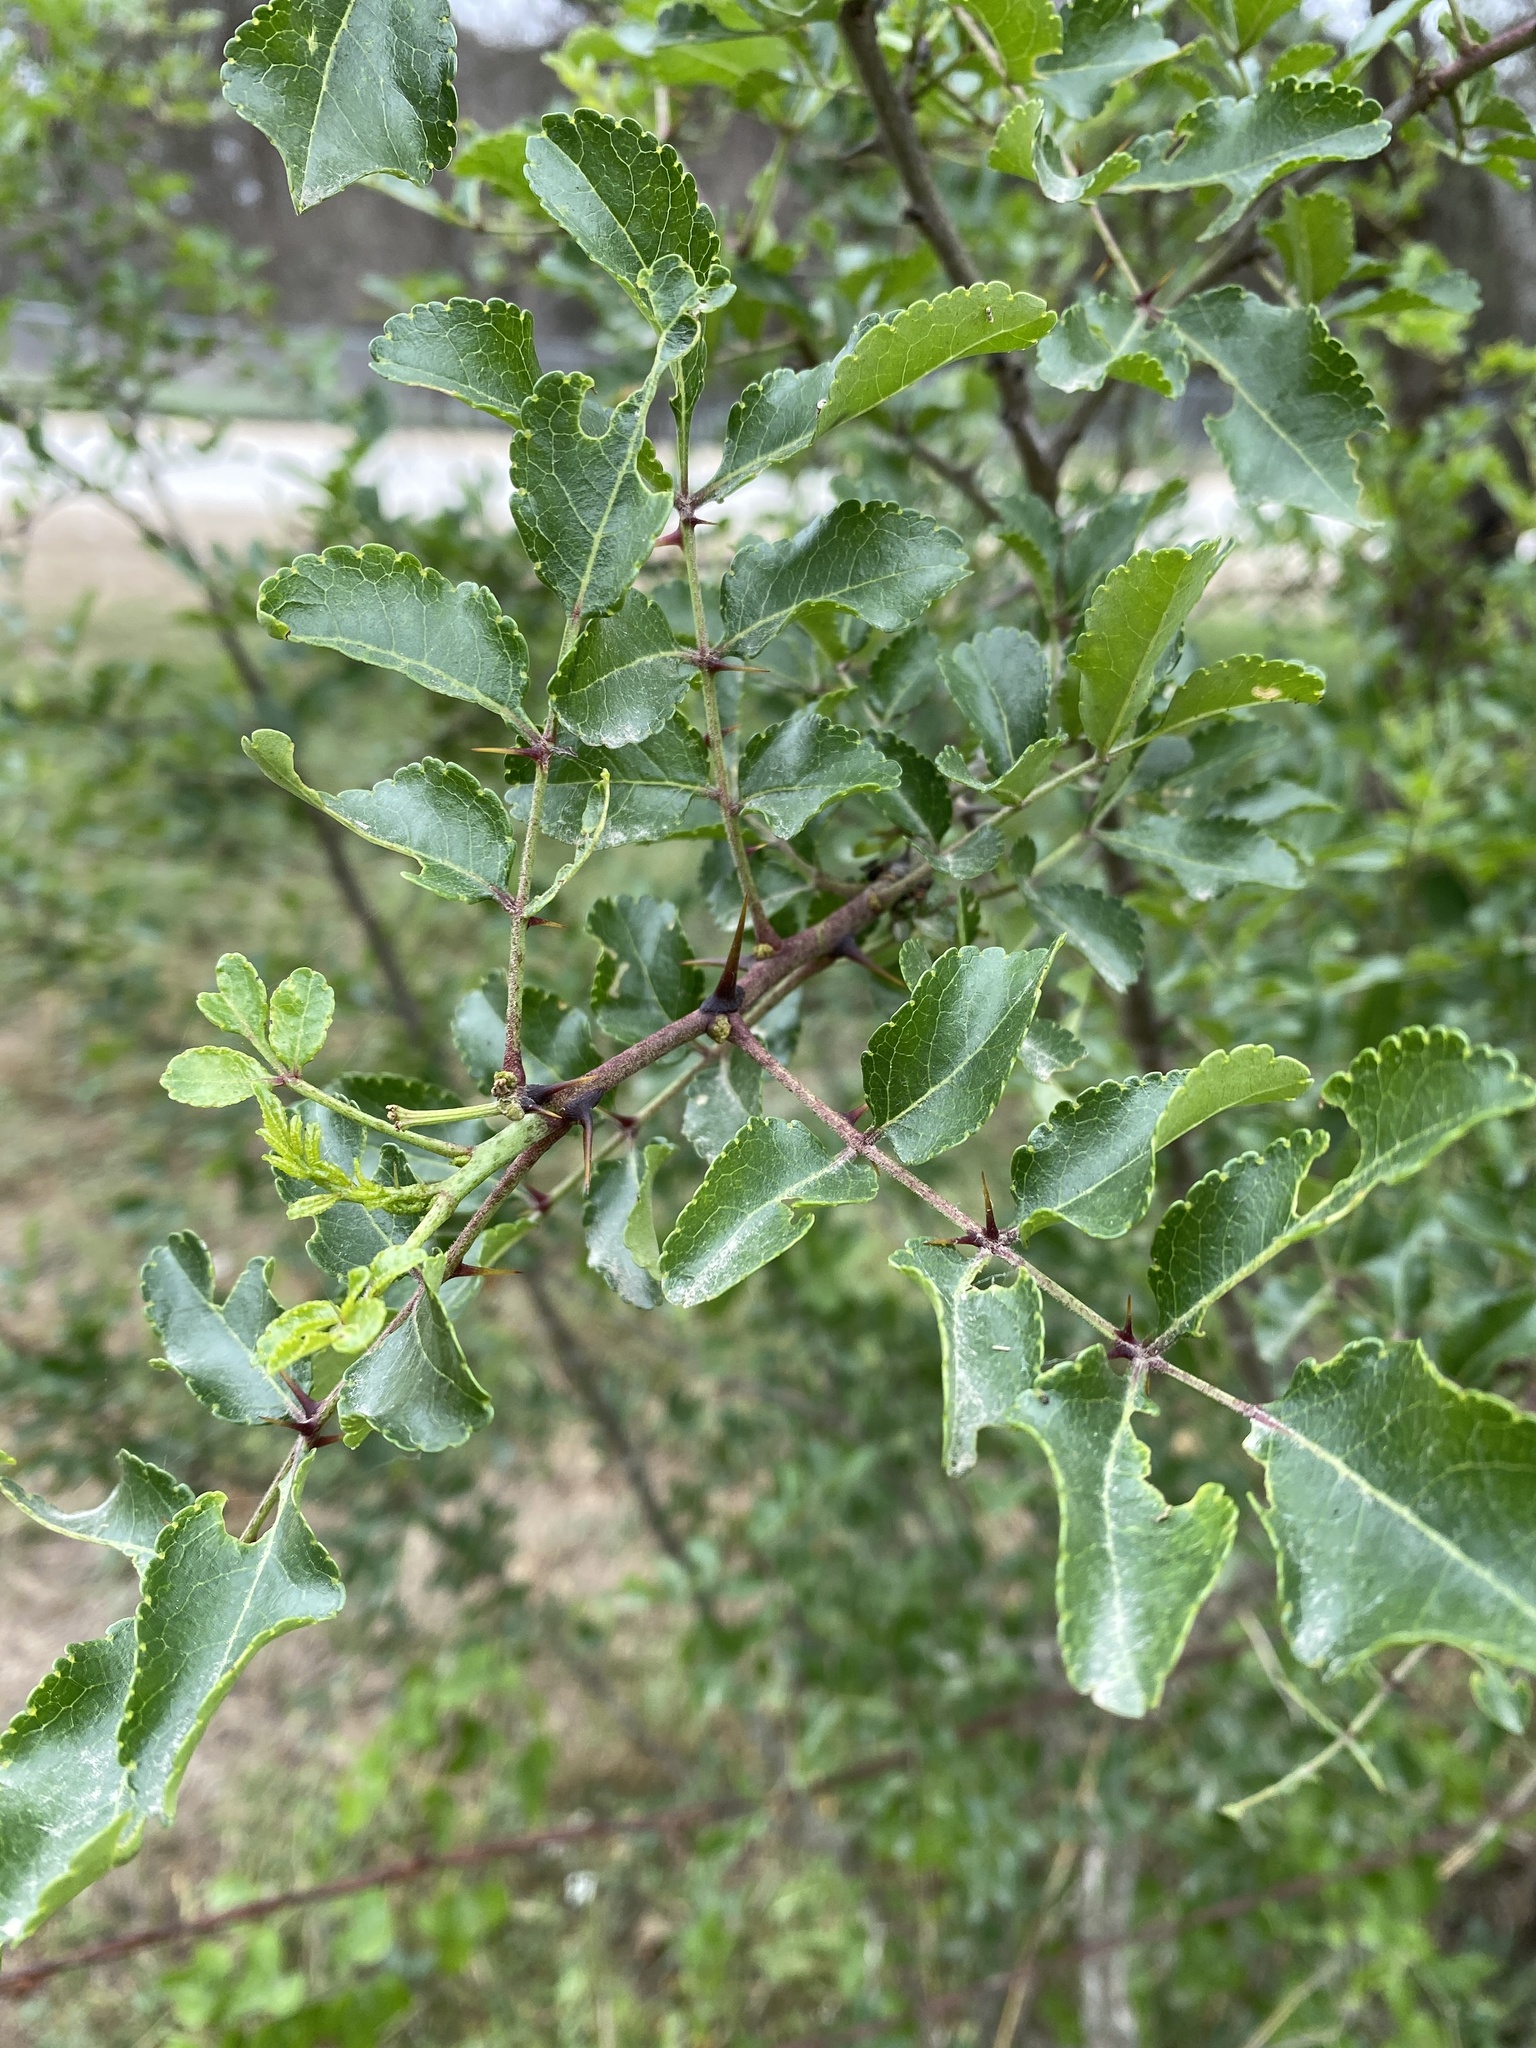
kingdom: Plantae
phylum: Tracheophyta
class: Magnoliopsida
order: Sapindales
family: Rutaceae
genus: Zanthoxylum
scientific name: Zanthoxylum clava-herculis
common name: Hercules'-club
